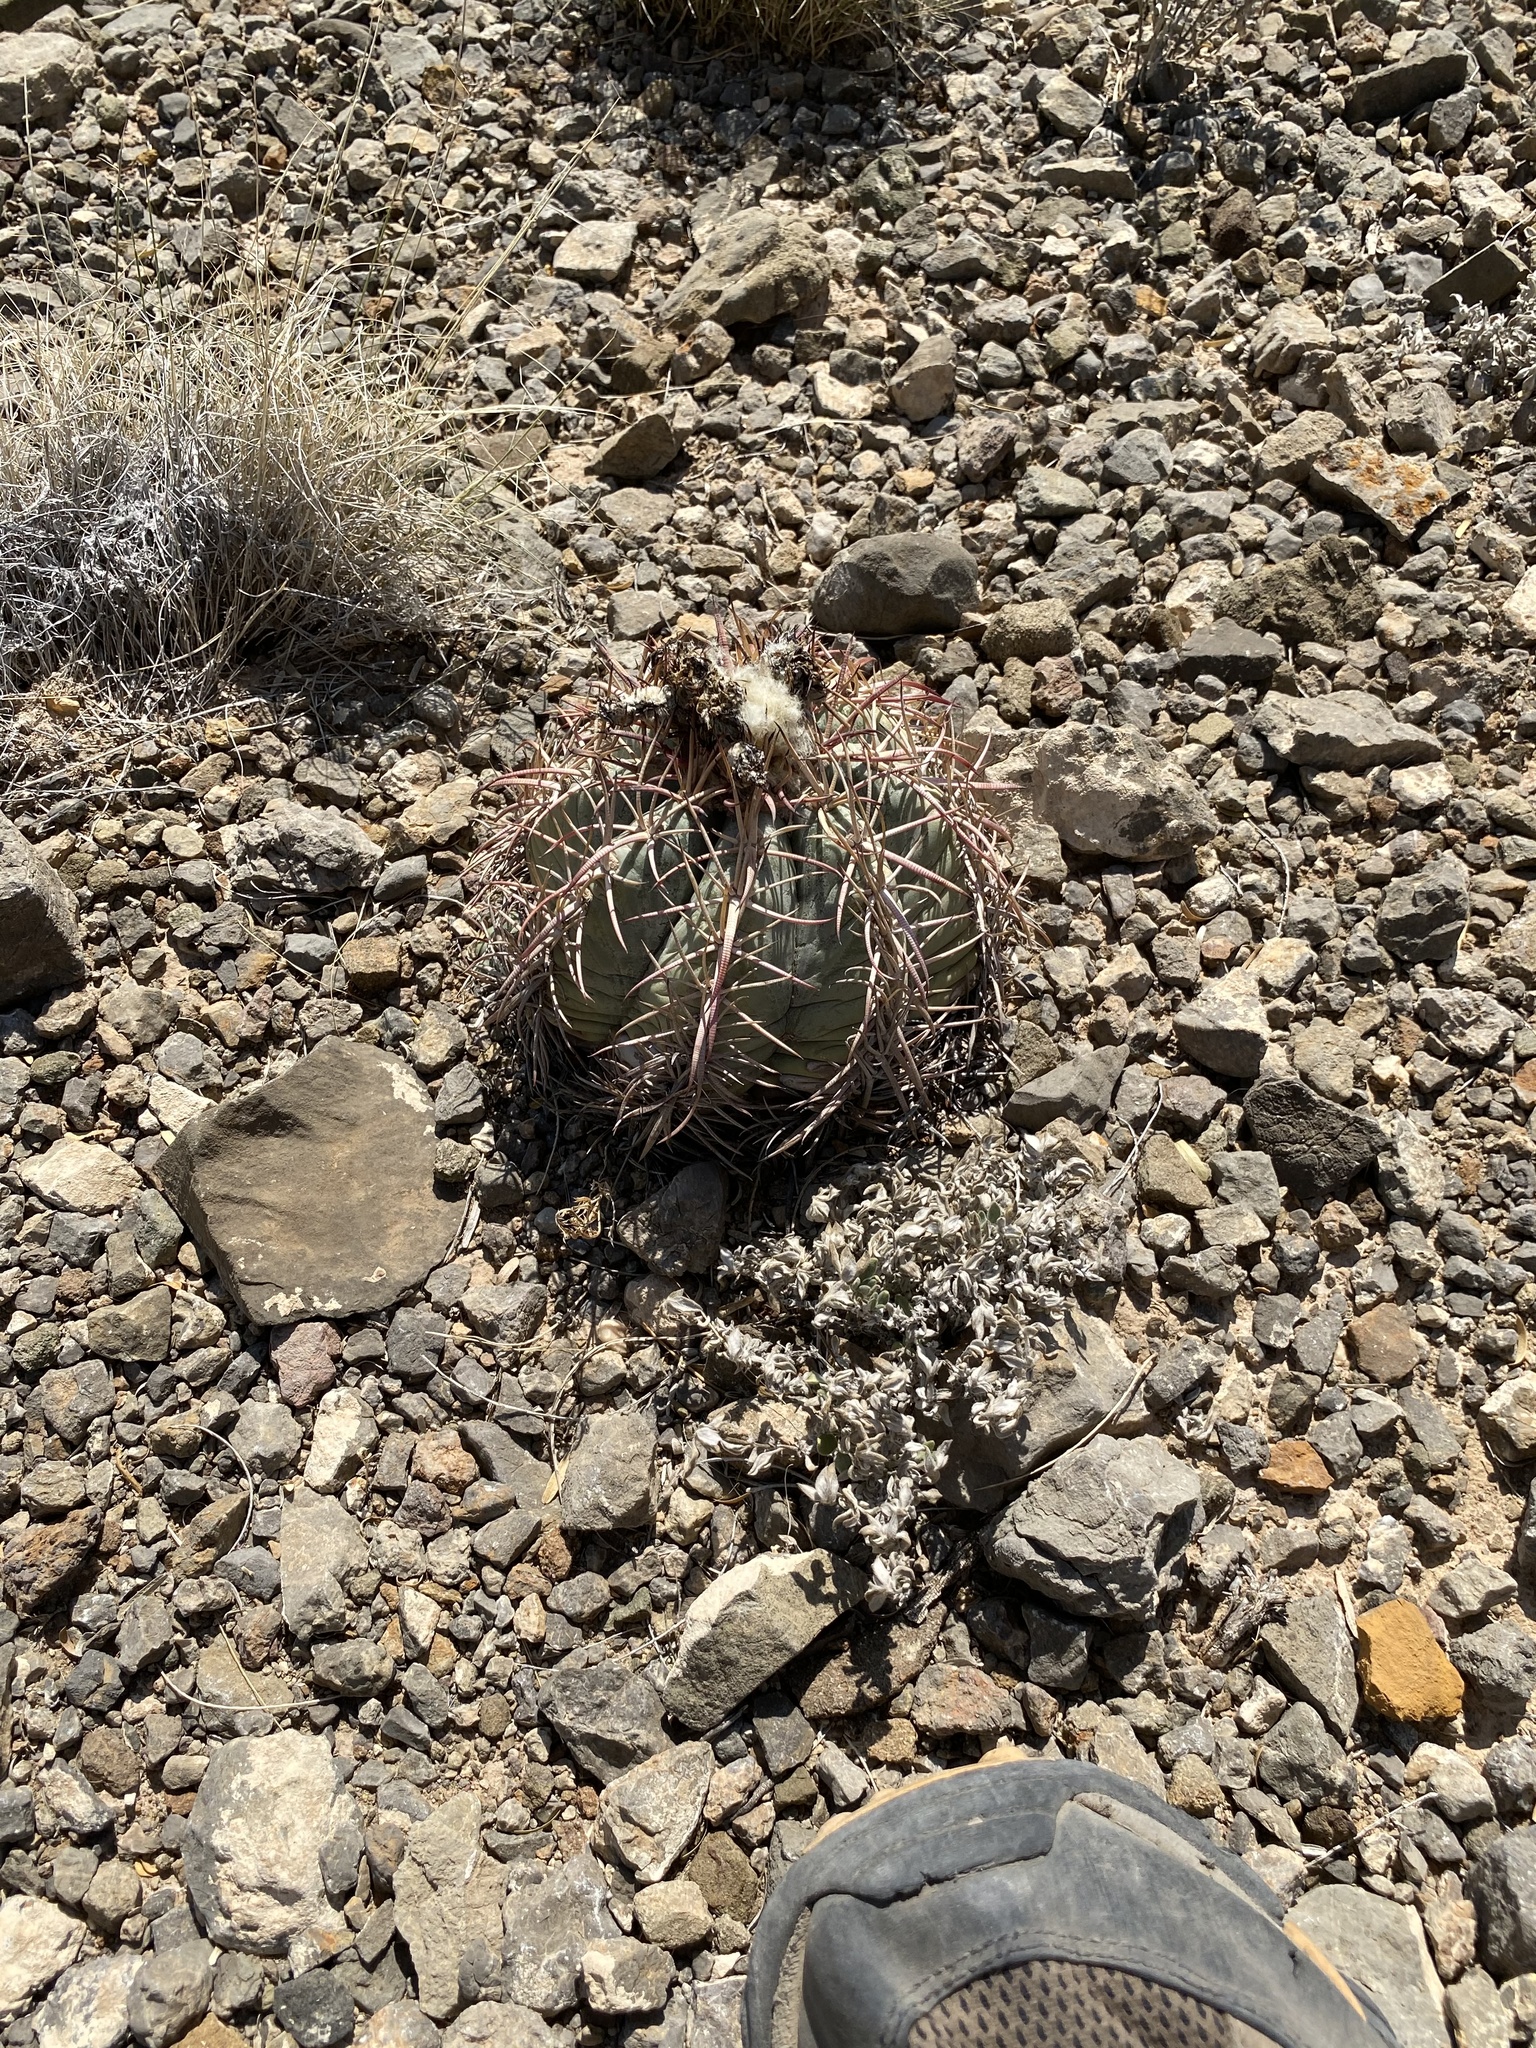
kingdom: Plantae
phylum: Tracheophyta
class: Magnoliopsida
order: Caryophyllales
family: Cactaceae
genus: Echinocactus
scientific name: Echinocactus horizonthalonius
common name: Devilshead
